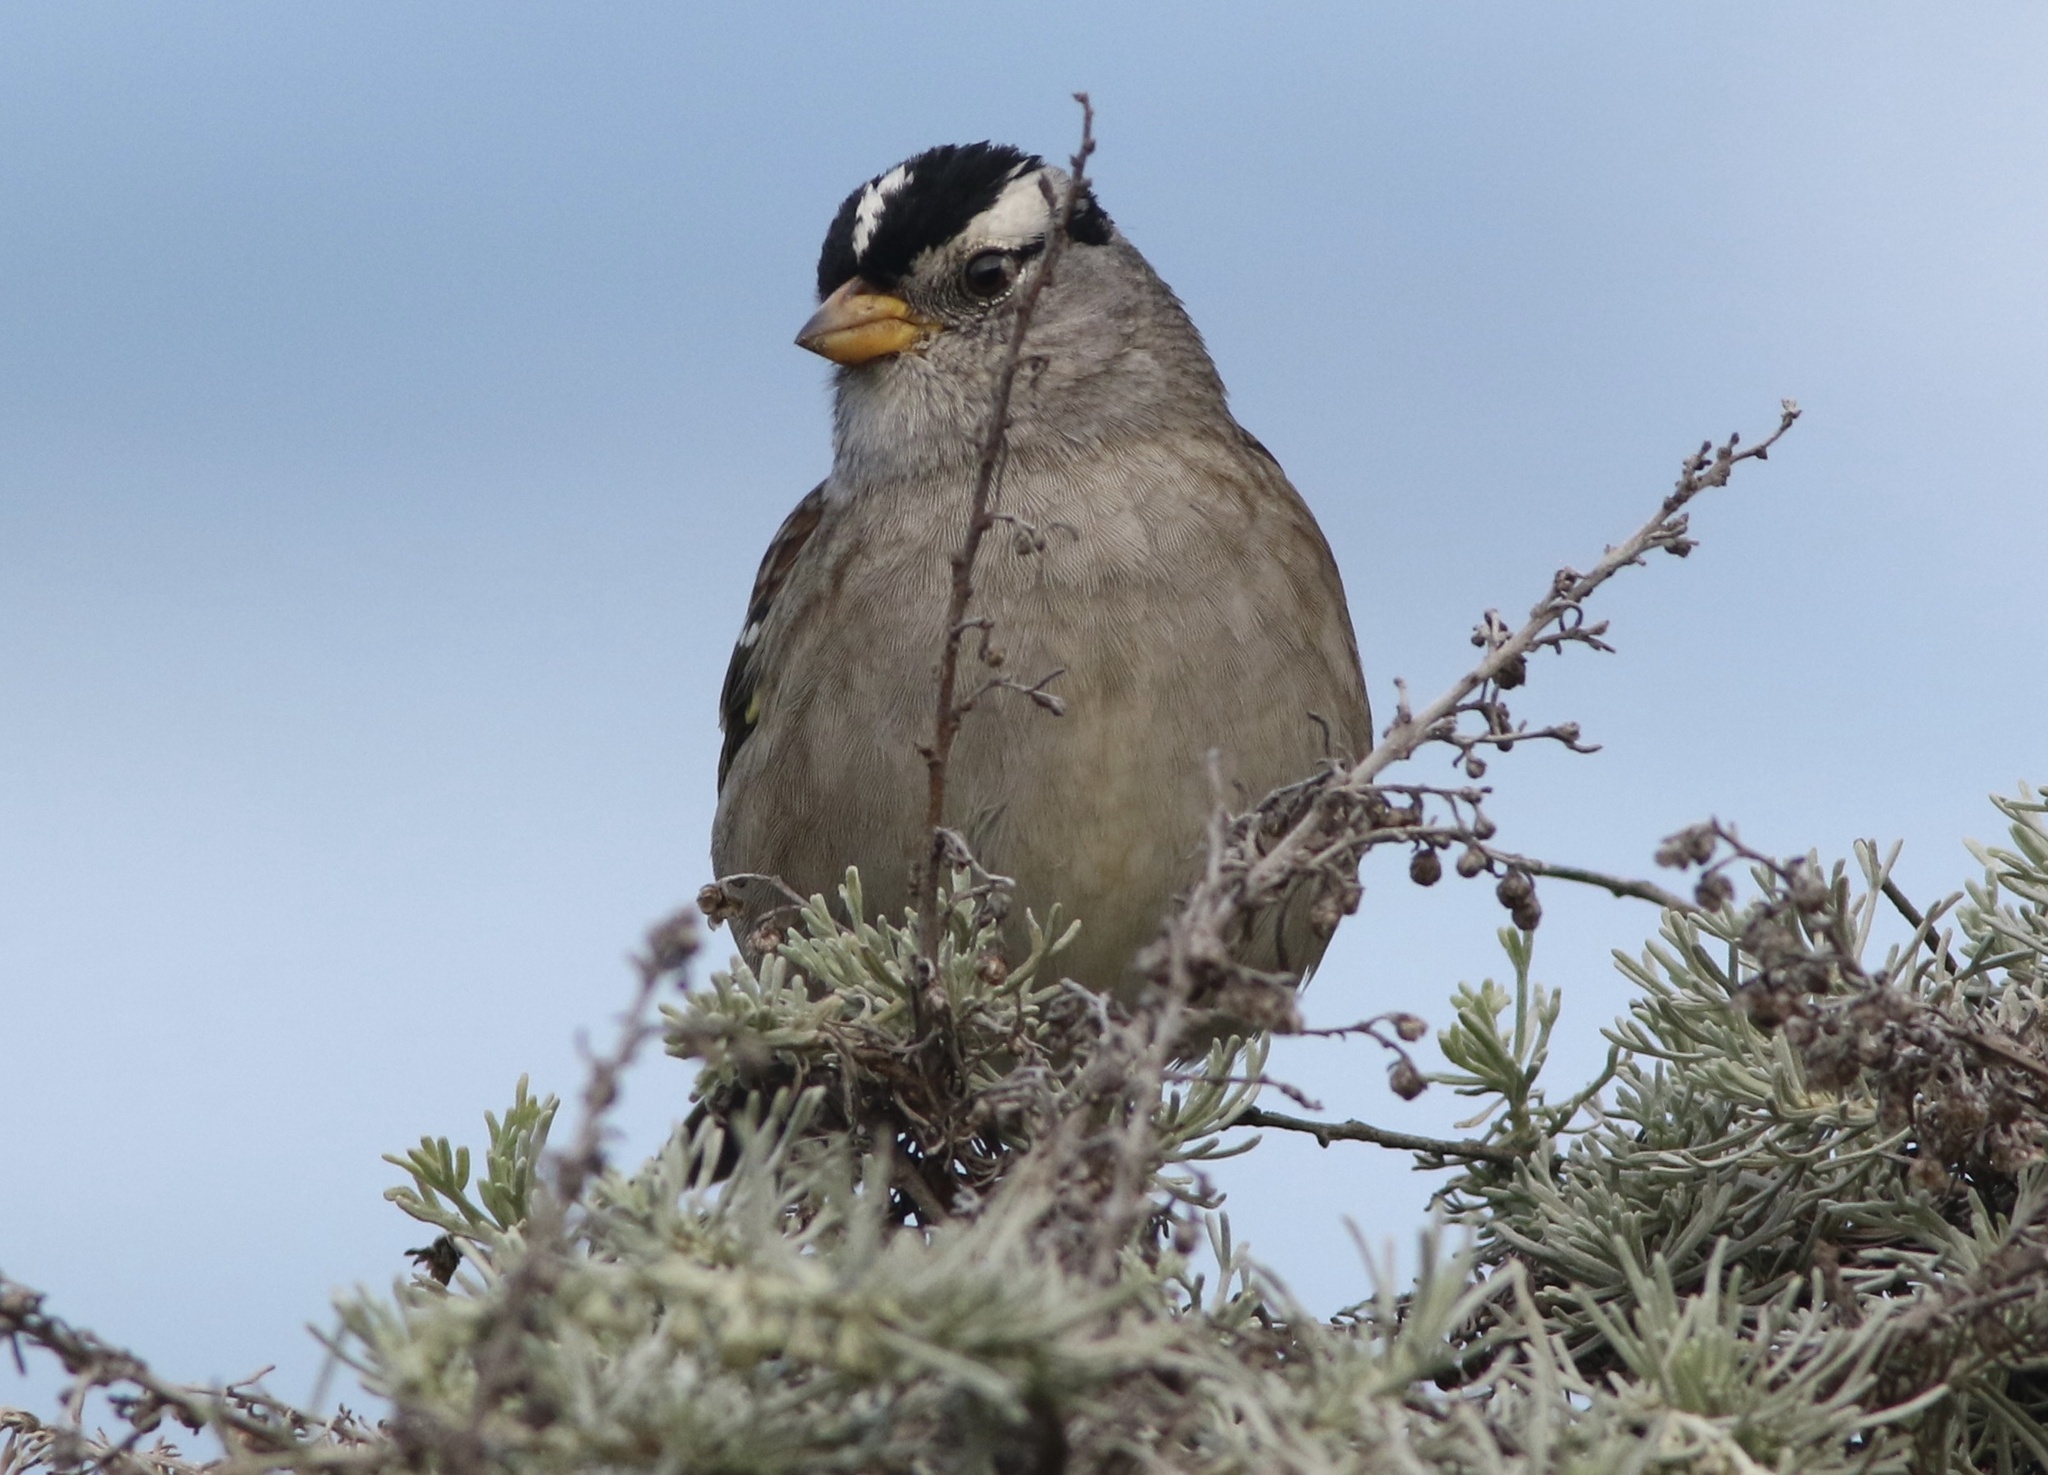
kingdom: Animalia
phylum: Chordata
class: Aves
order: Passeriformes
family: Passerellidae
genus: Zonotrichia
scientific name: Zonotrichia leucophrys
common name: White-crowned sparrow
